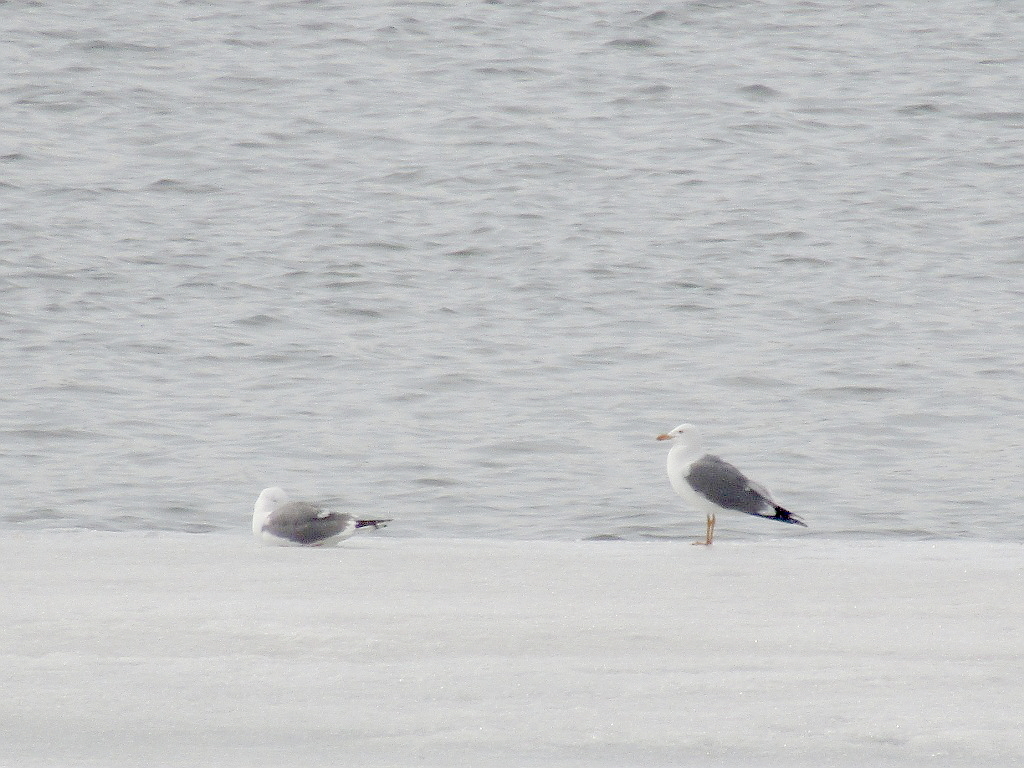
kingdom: Animalia
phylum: Chordata
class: Aves
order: Charadriiformes
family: Laridae
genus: Larus
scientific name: Larus fuscus
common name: Lesser black-backed gull
